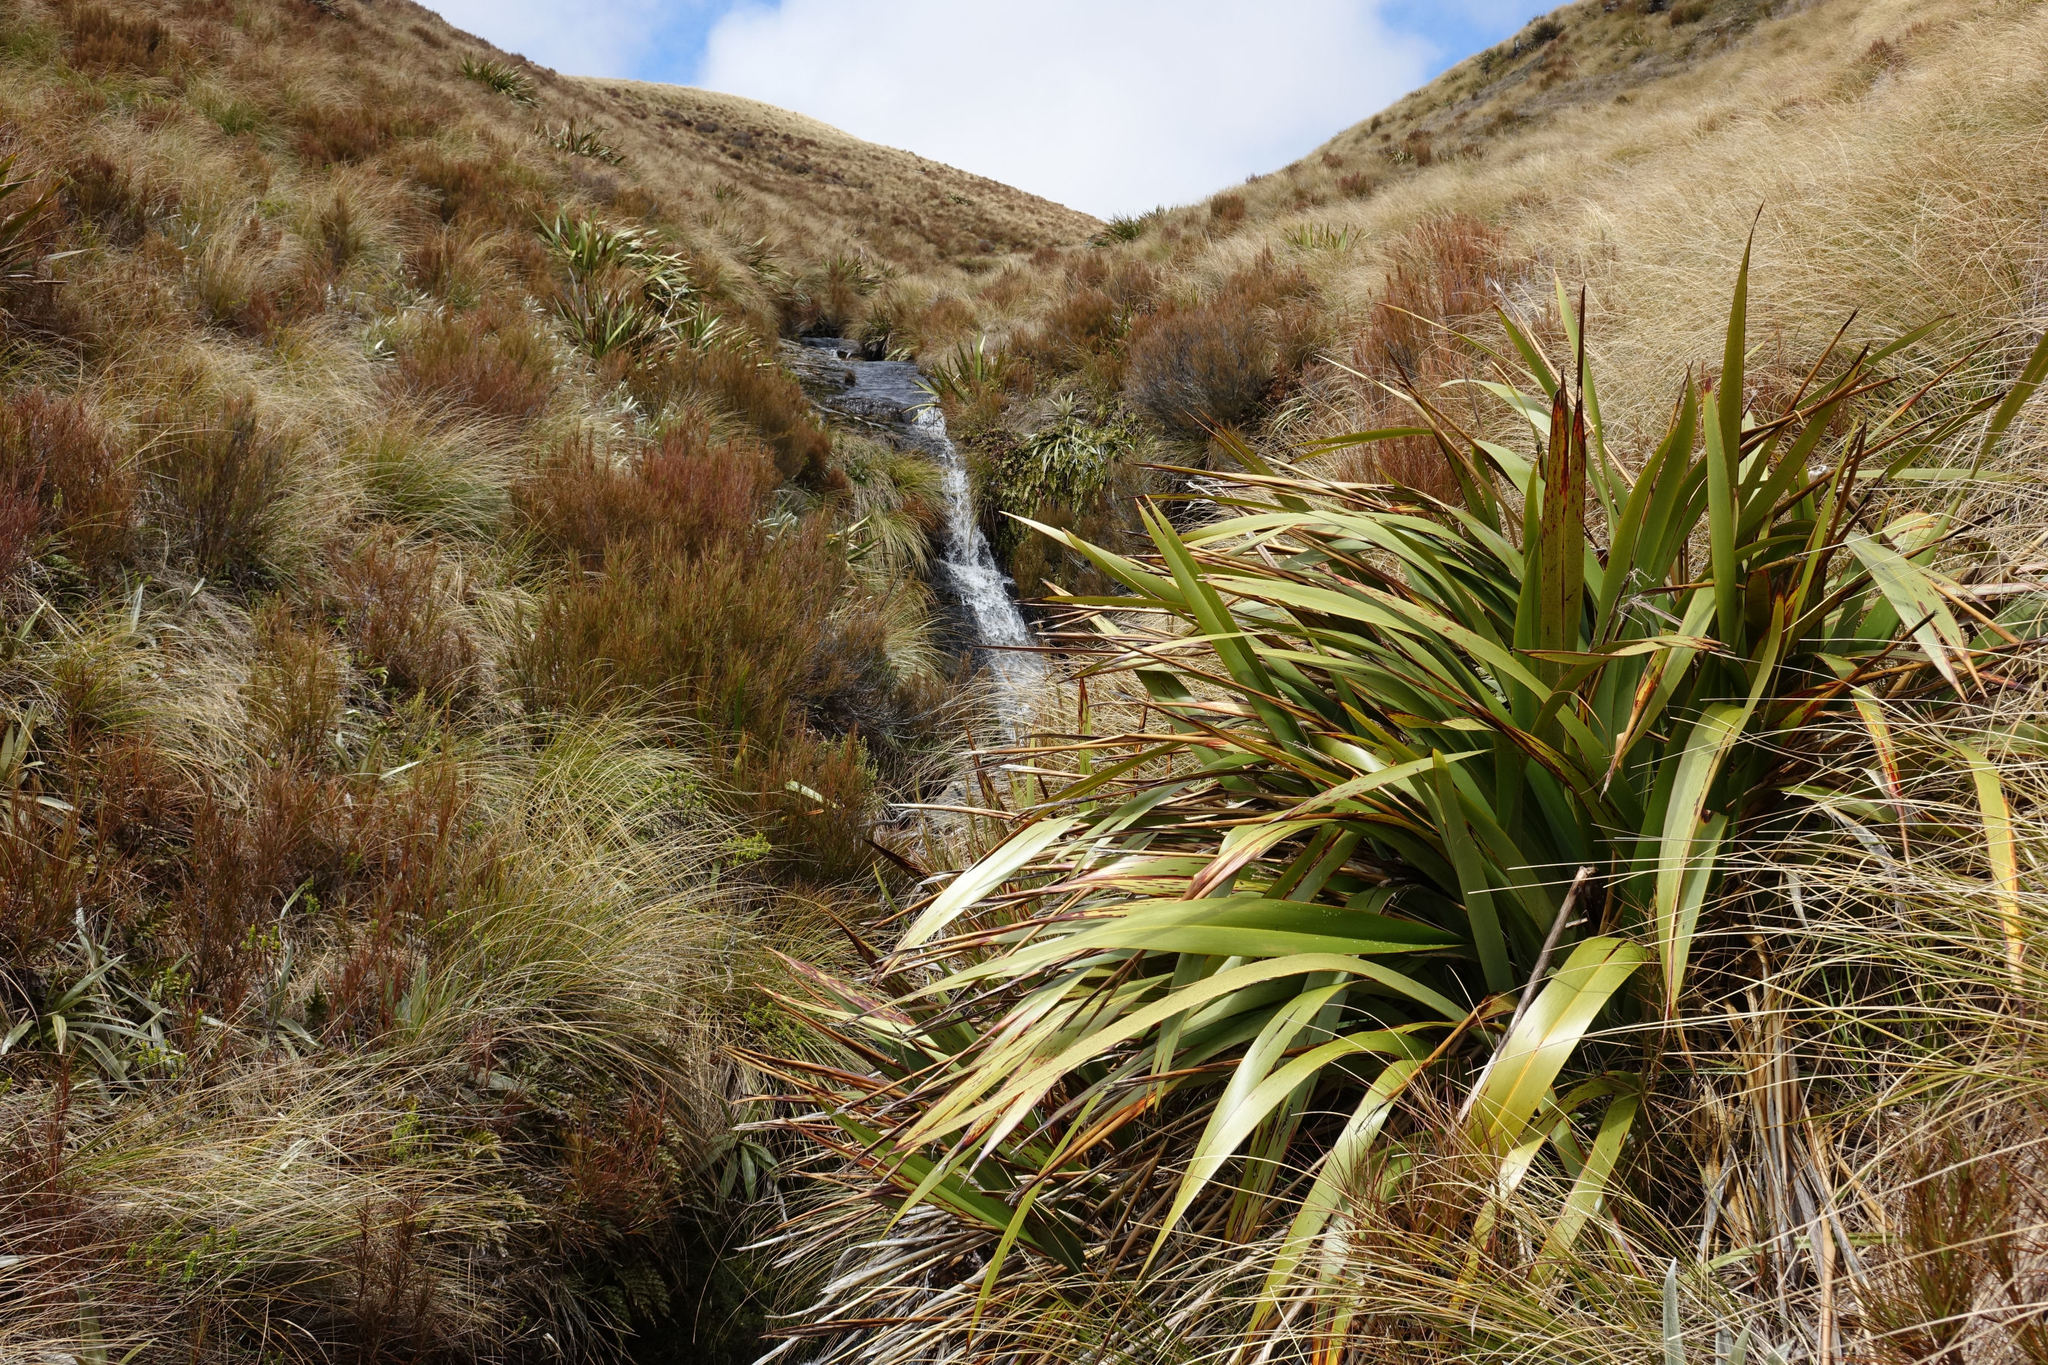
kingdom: Plantae
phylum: Tracheophyta
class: Liliopsida
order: Asparagales
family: Asphodelaceae
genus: Phormium
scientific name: Phormium colensoi
